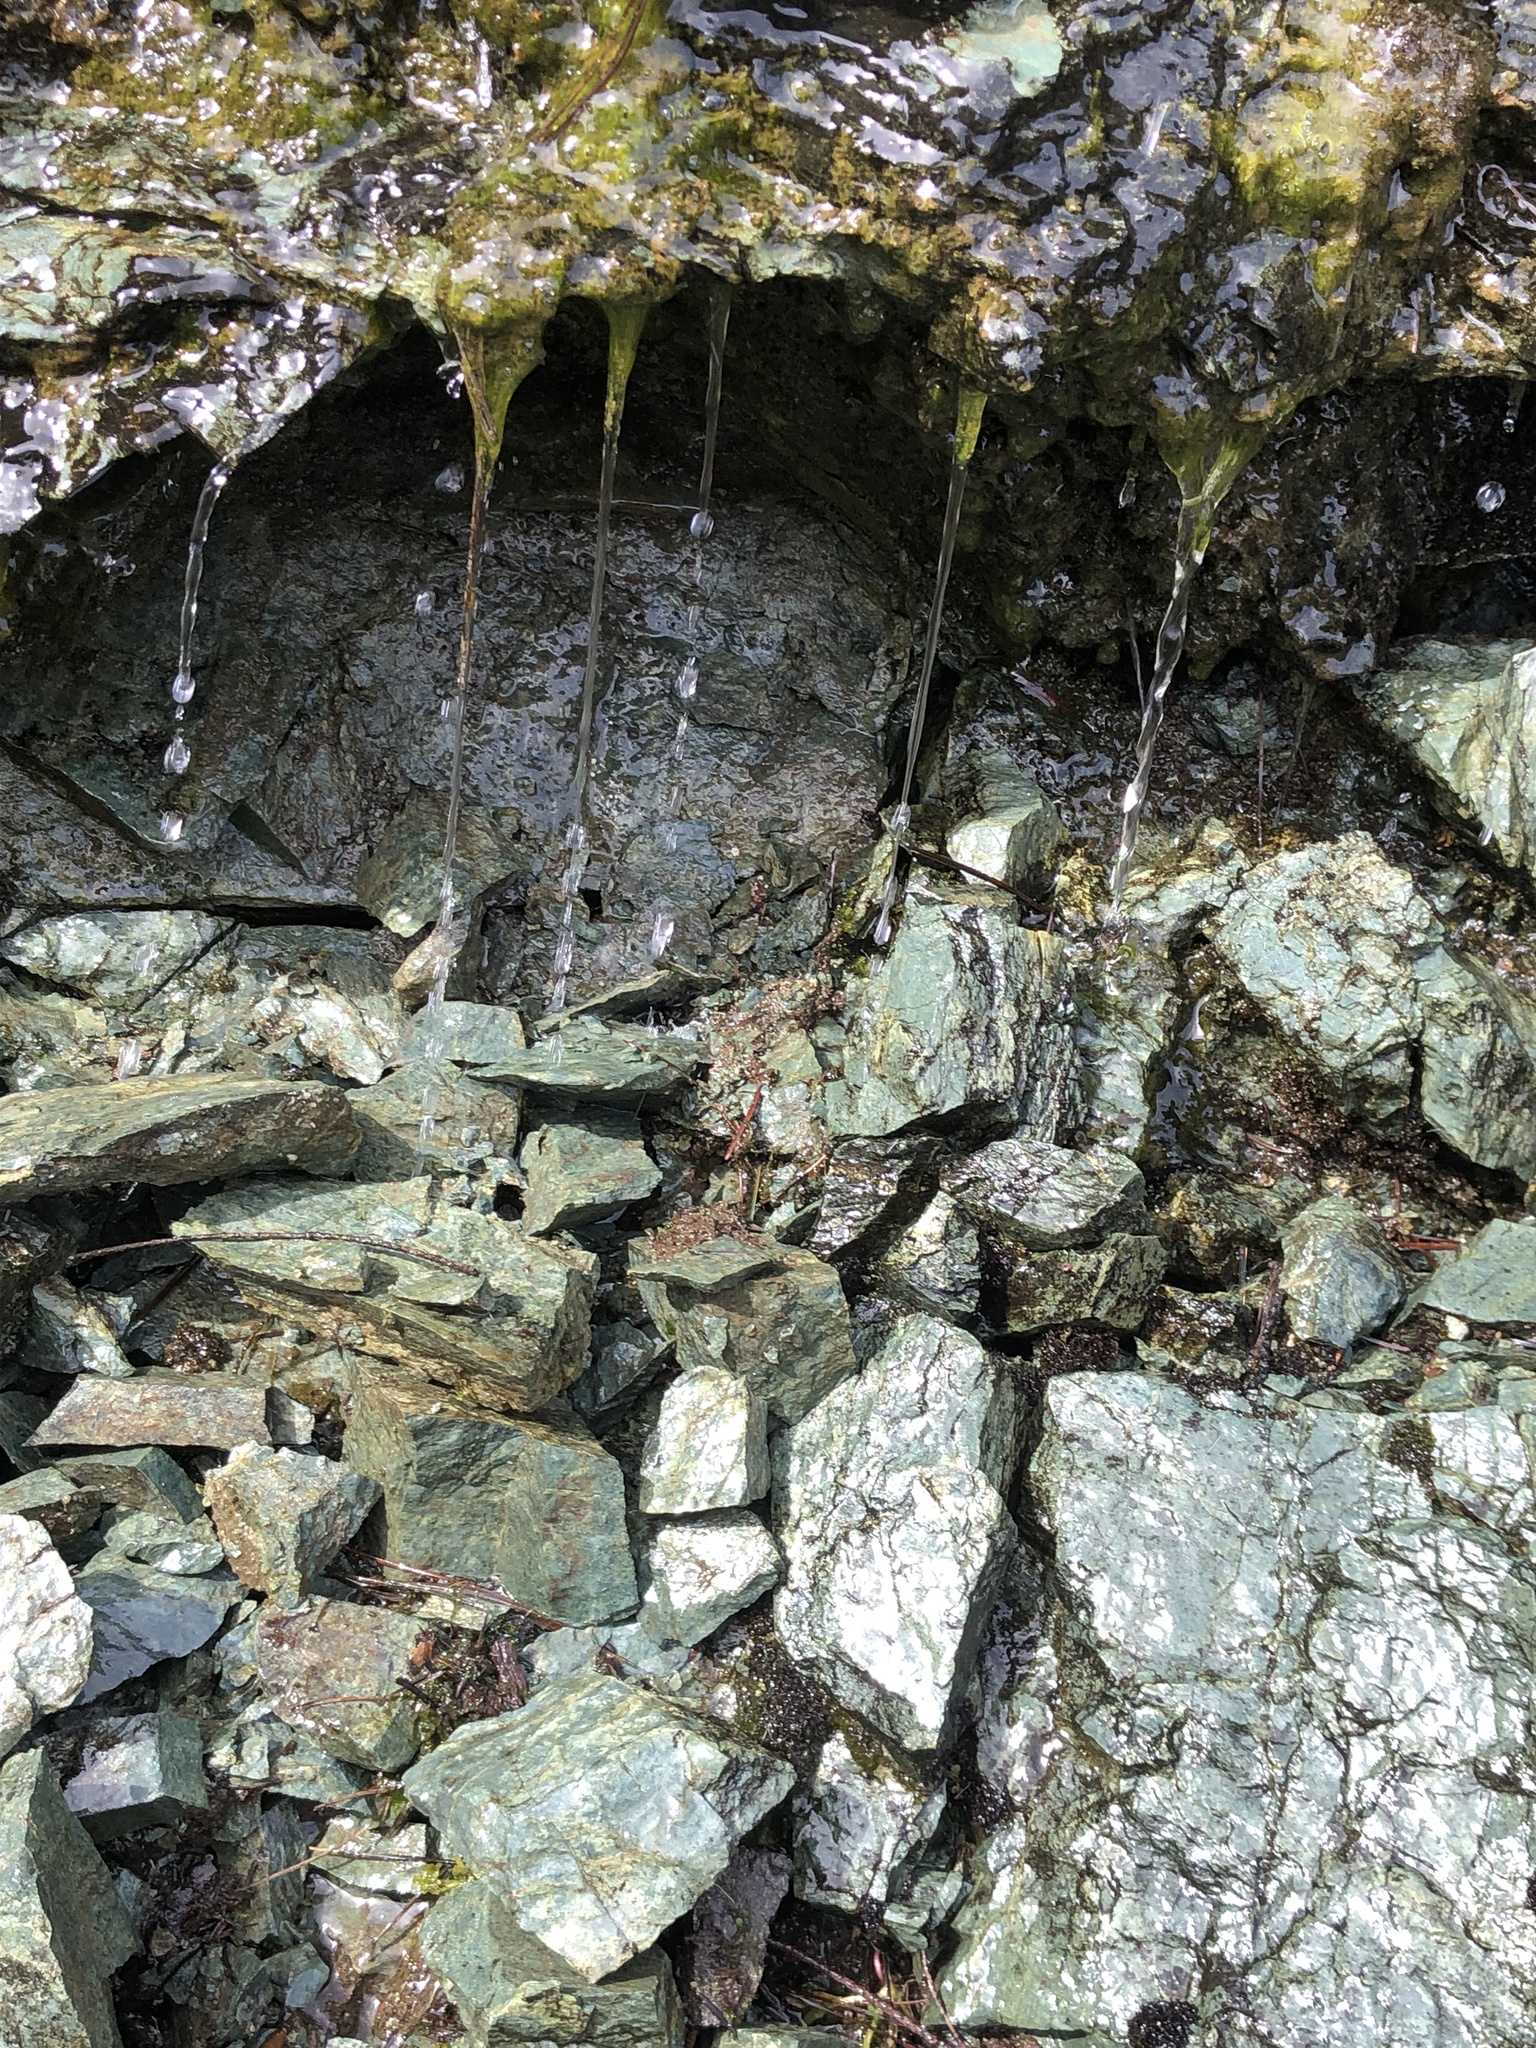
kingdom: Animalia
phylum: Chordata
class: Amphibia
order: Caudata
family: Plethodontidae
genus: Aneides
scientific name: Aneides ferreus
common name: Clouded salamander
